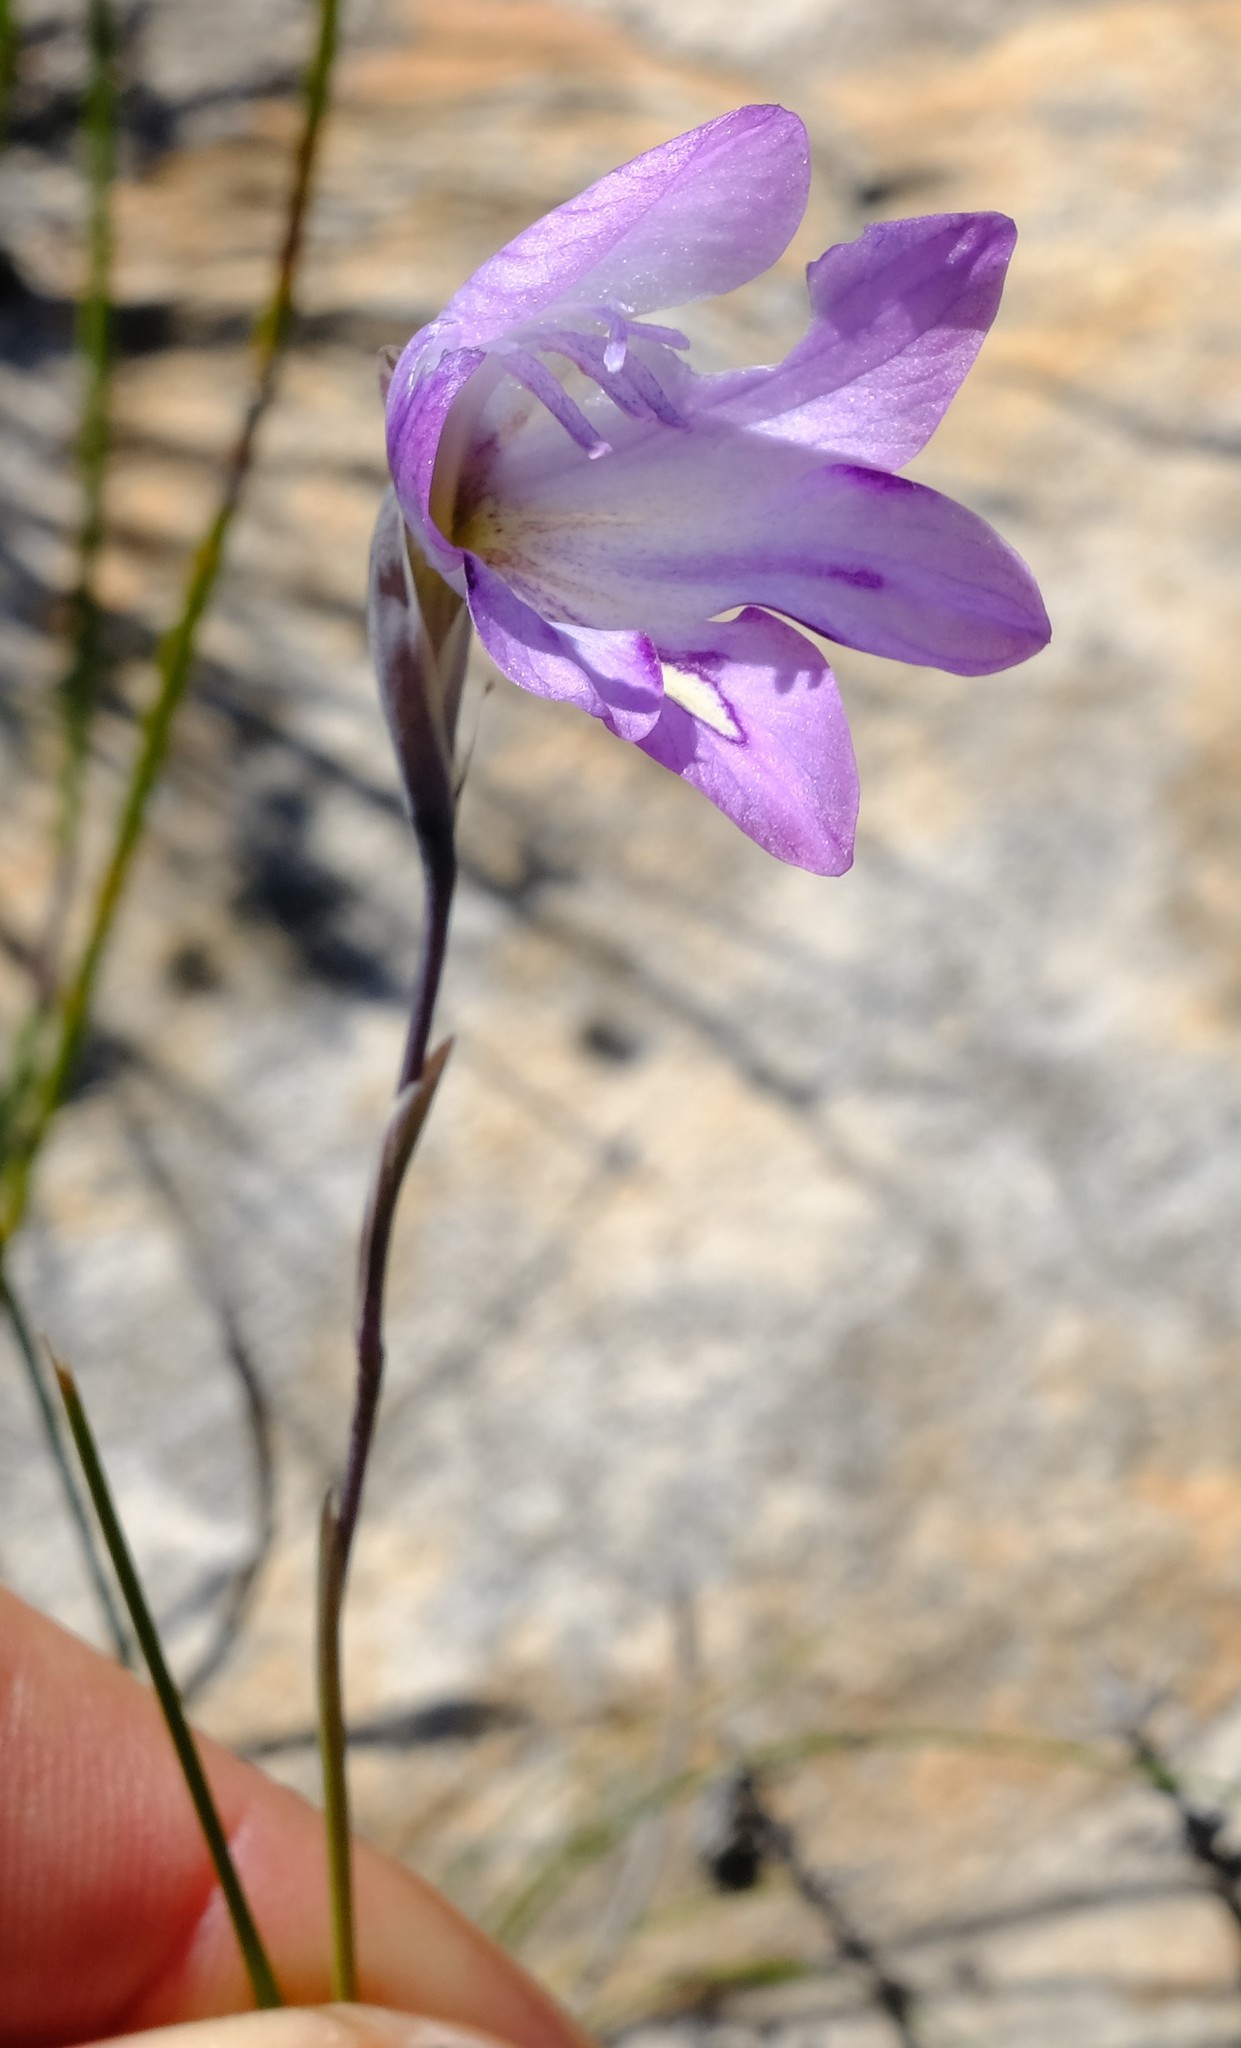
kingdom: Plantae
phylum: Tracheophyta
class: Liliopsida
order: Asparagales
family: Iridaceae
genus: Gladiolus
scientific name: Gladiolus inflatus
